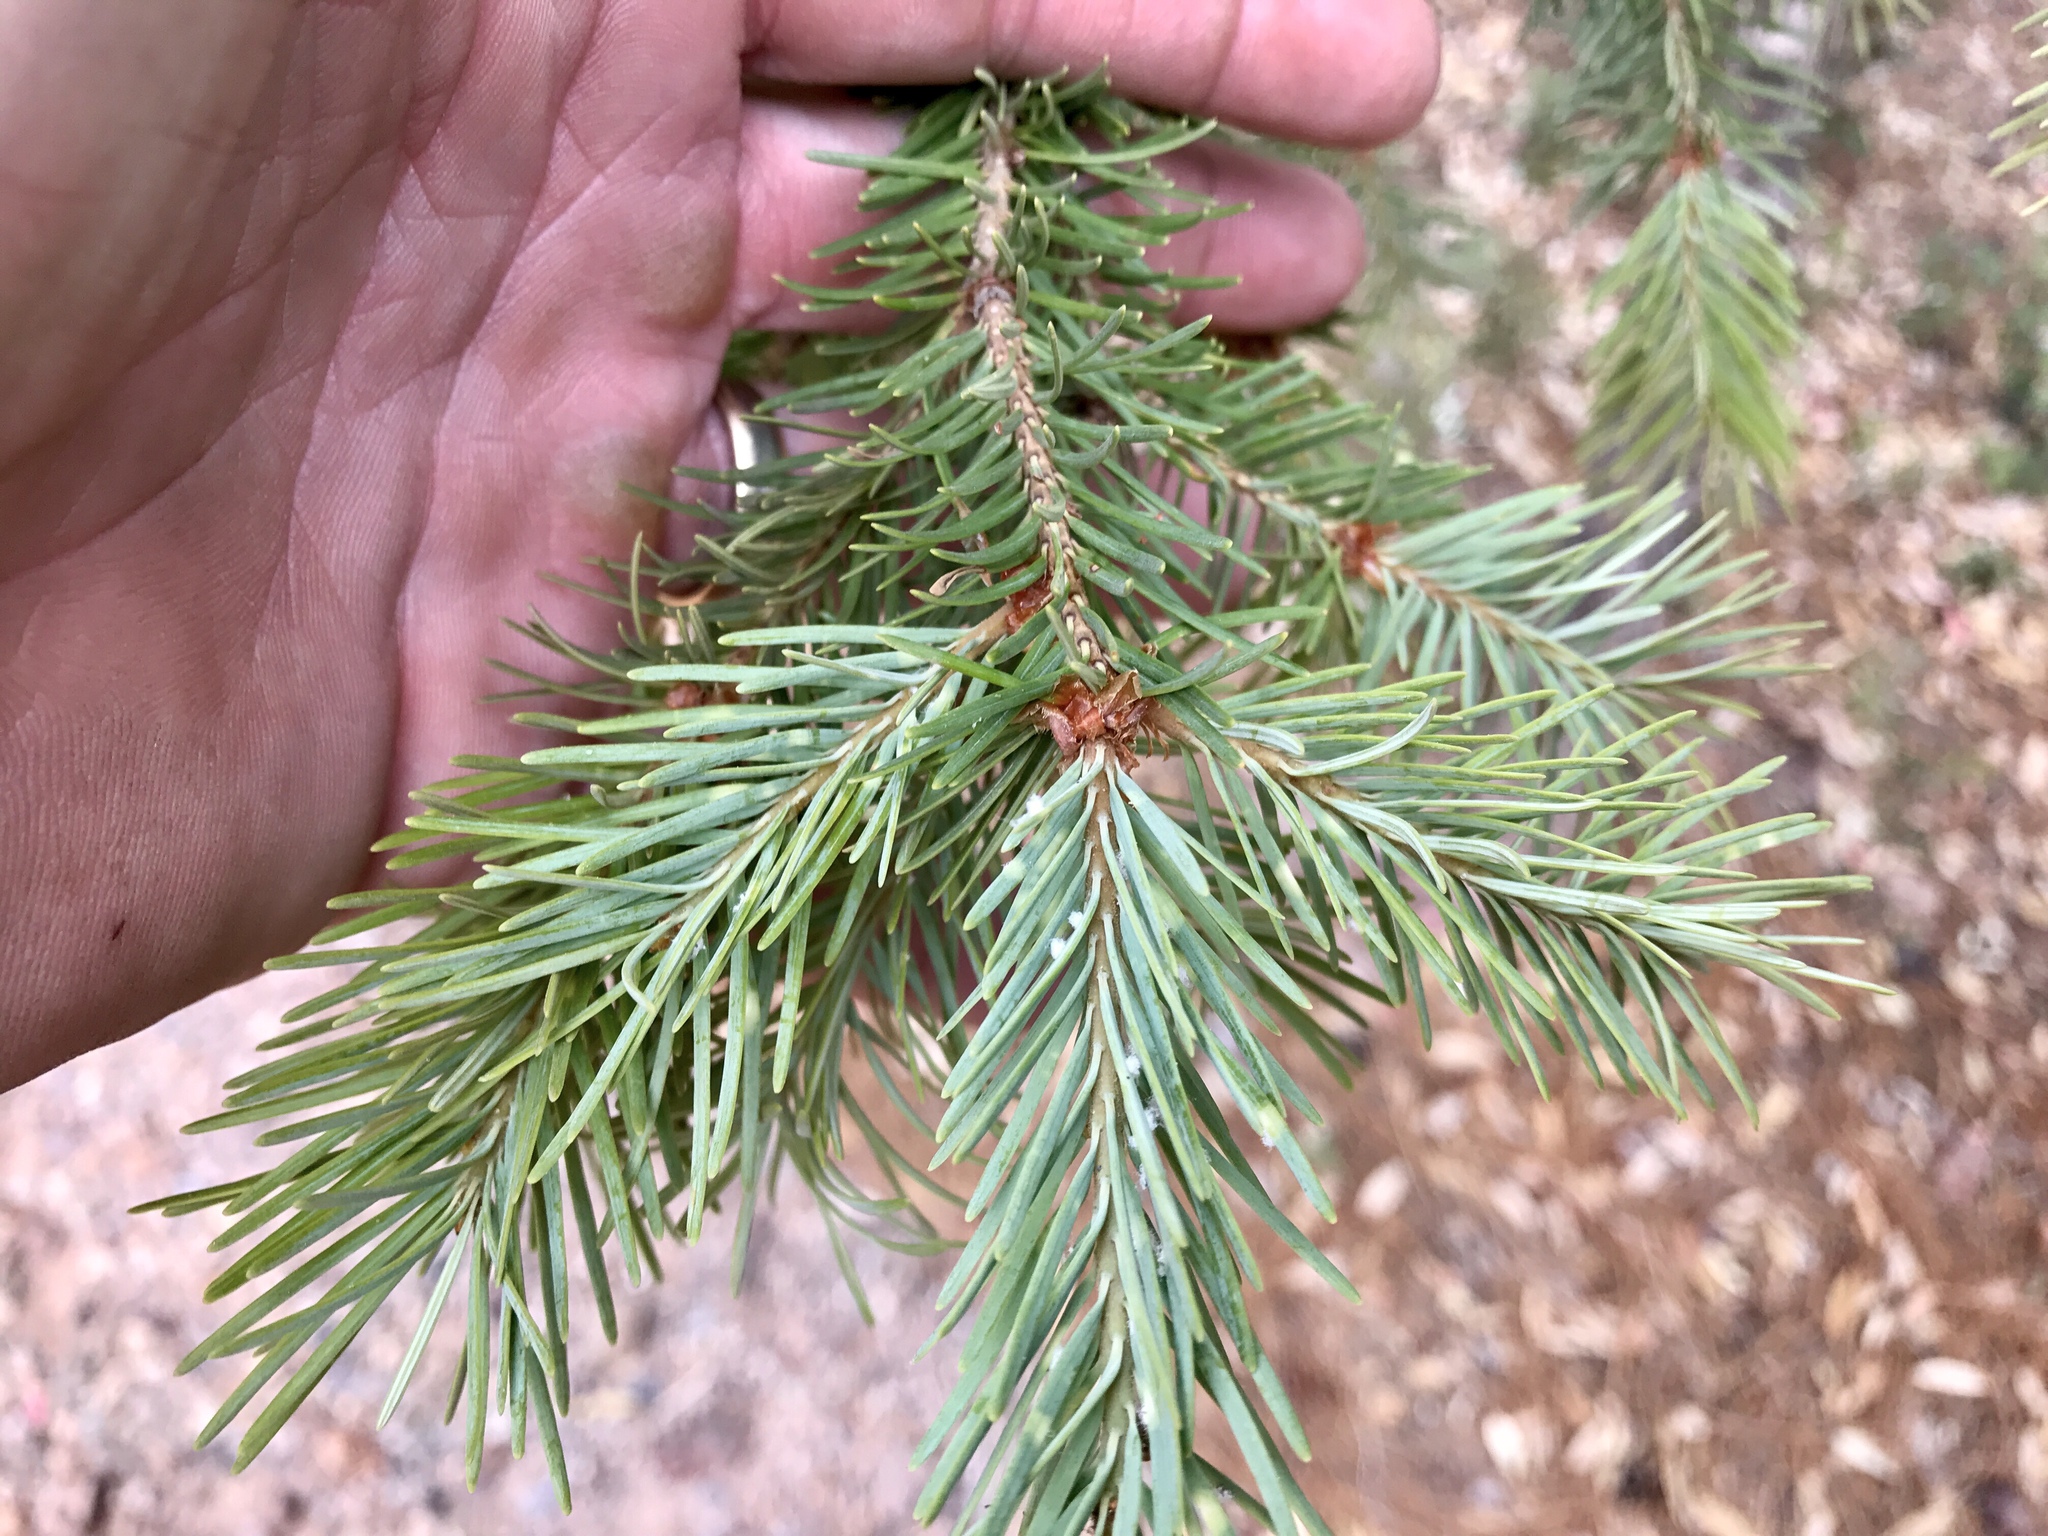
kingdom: Plantae
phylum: Tracheophyta
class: Pinopsida
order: Pinales
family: Pinaceae
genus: Pseudotsuga
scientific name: Pseudotsuga menziesii
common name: Douglas fir
